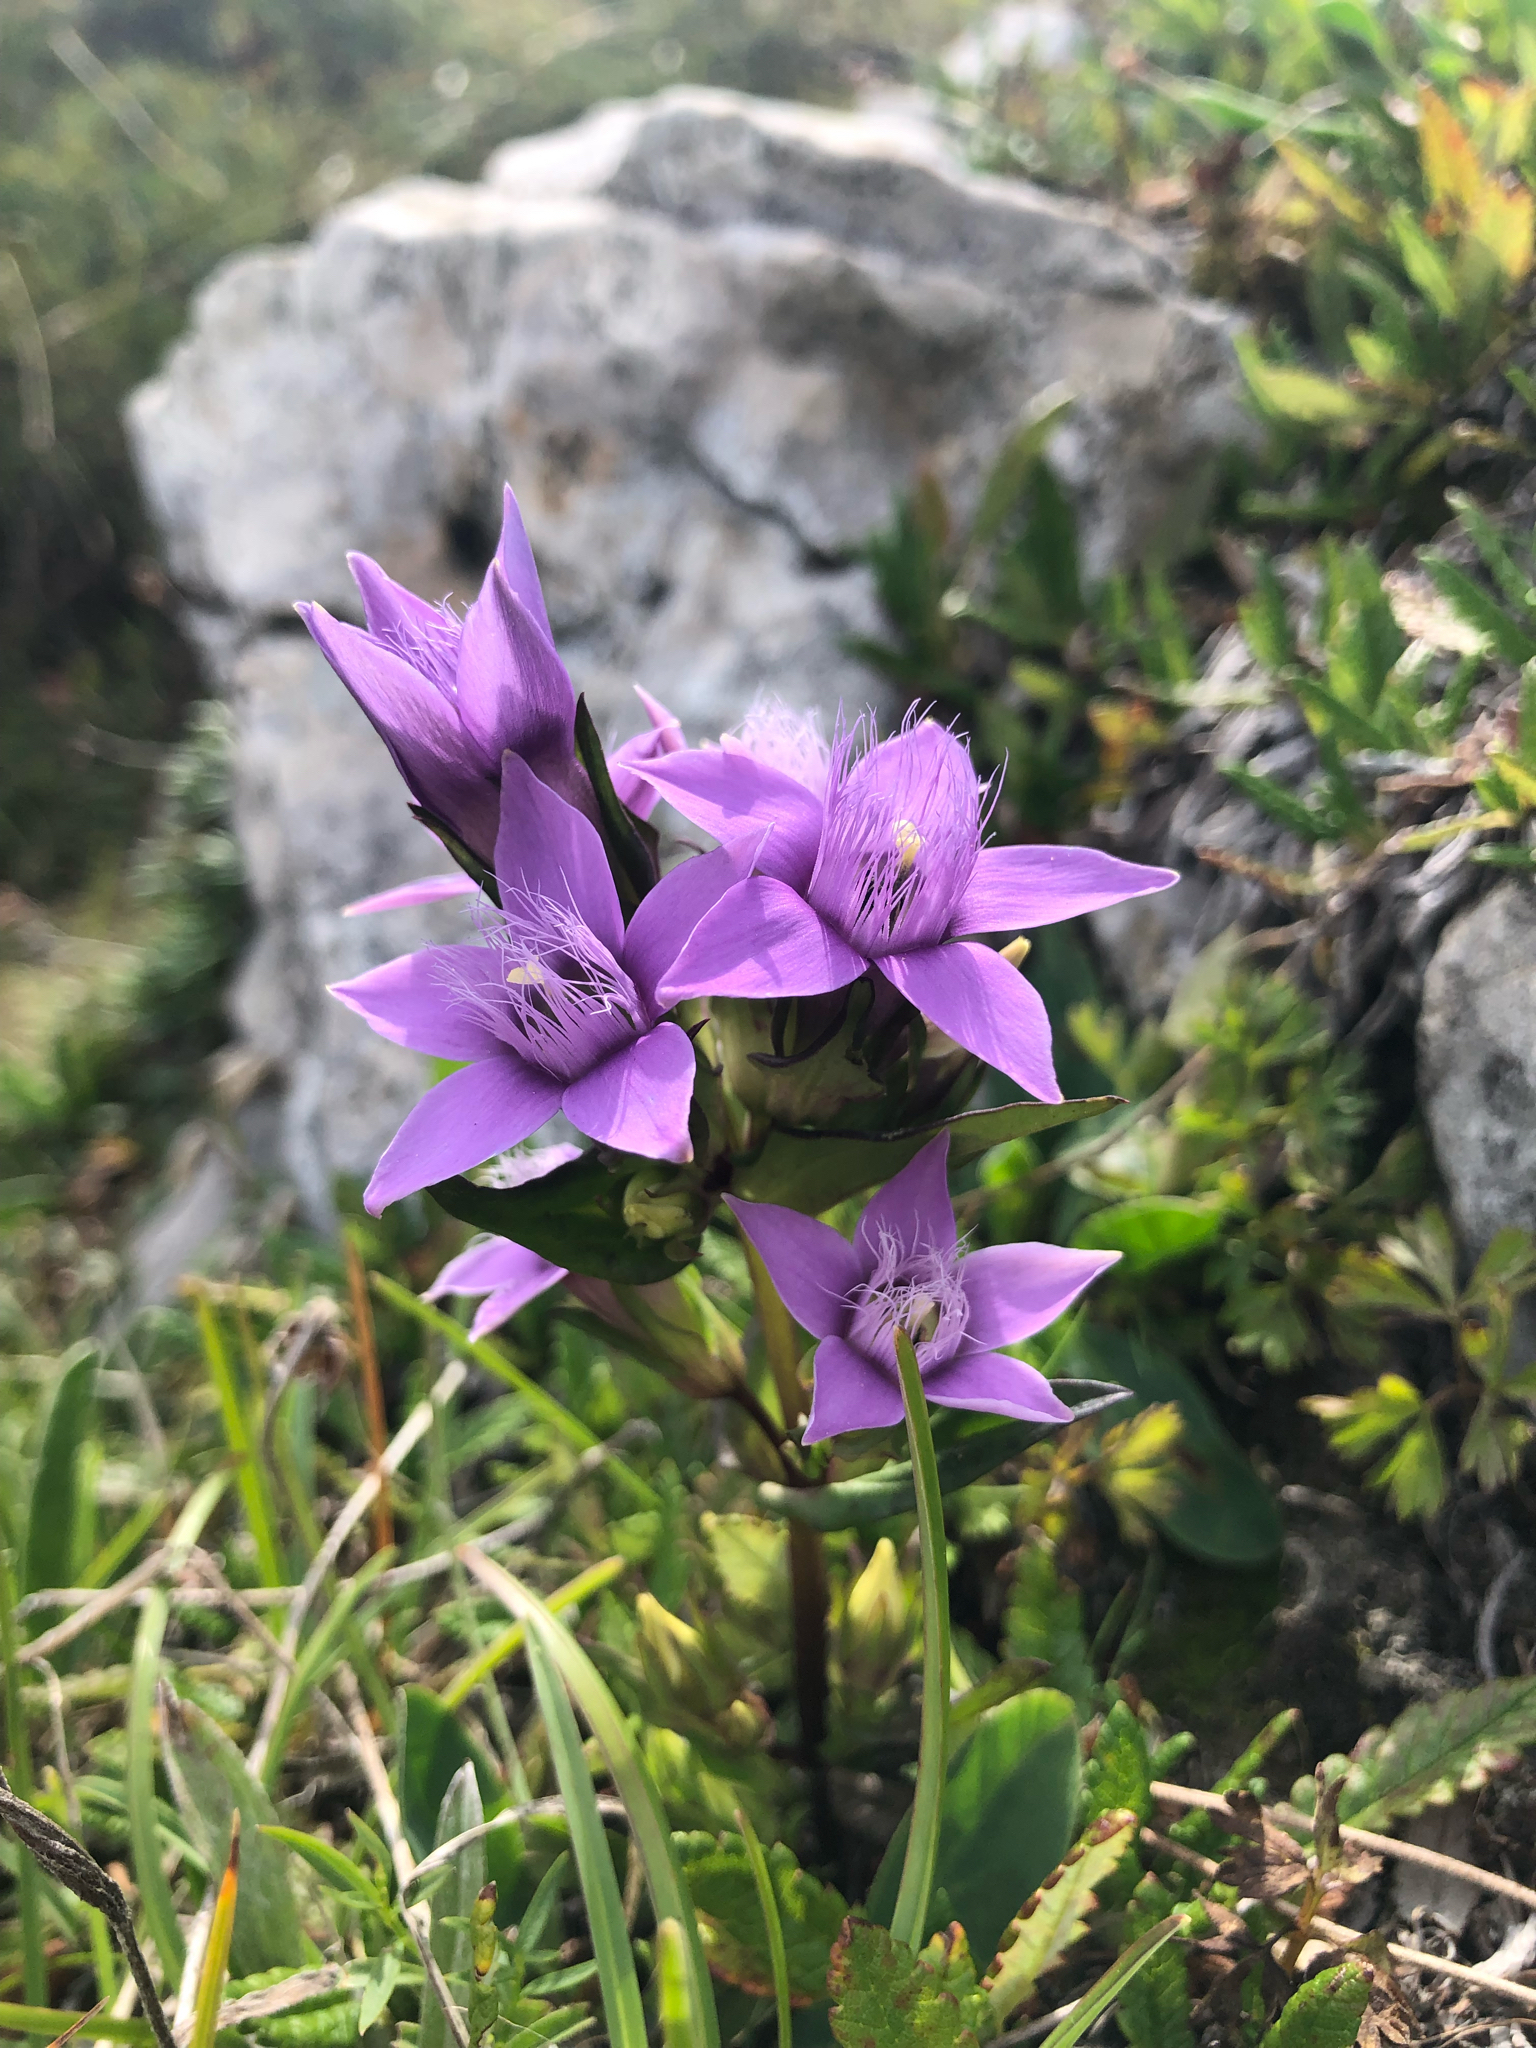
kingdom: Plantae
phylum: Tracheophyta
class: Magnoliopsida
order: Gentianales
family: Gentianaceae
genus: Gentianella
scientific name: Gentianella anisodonta
